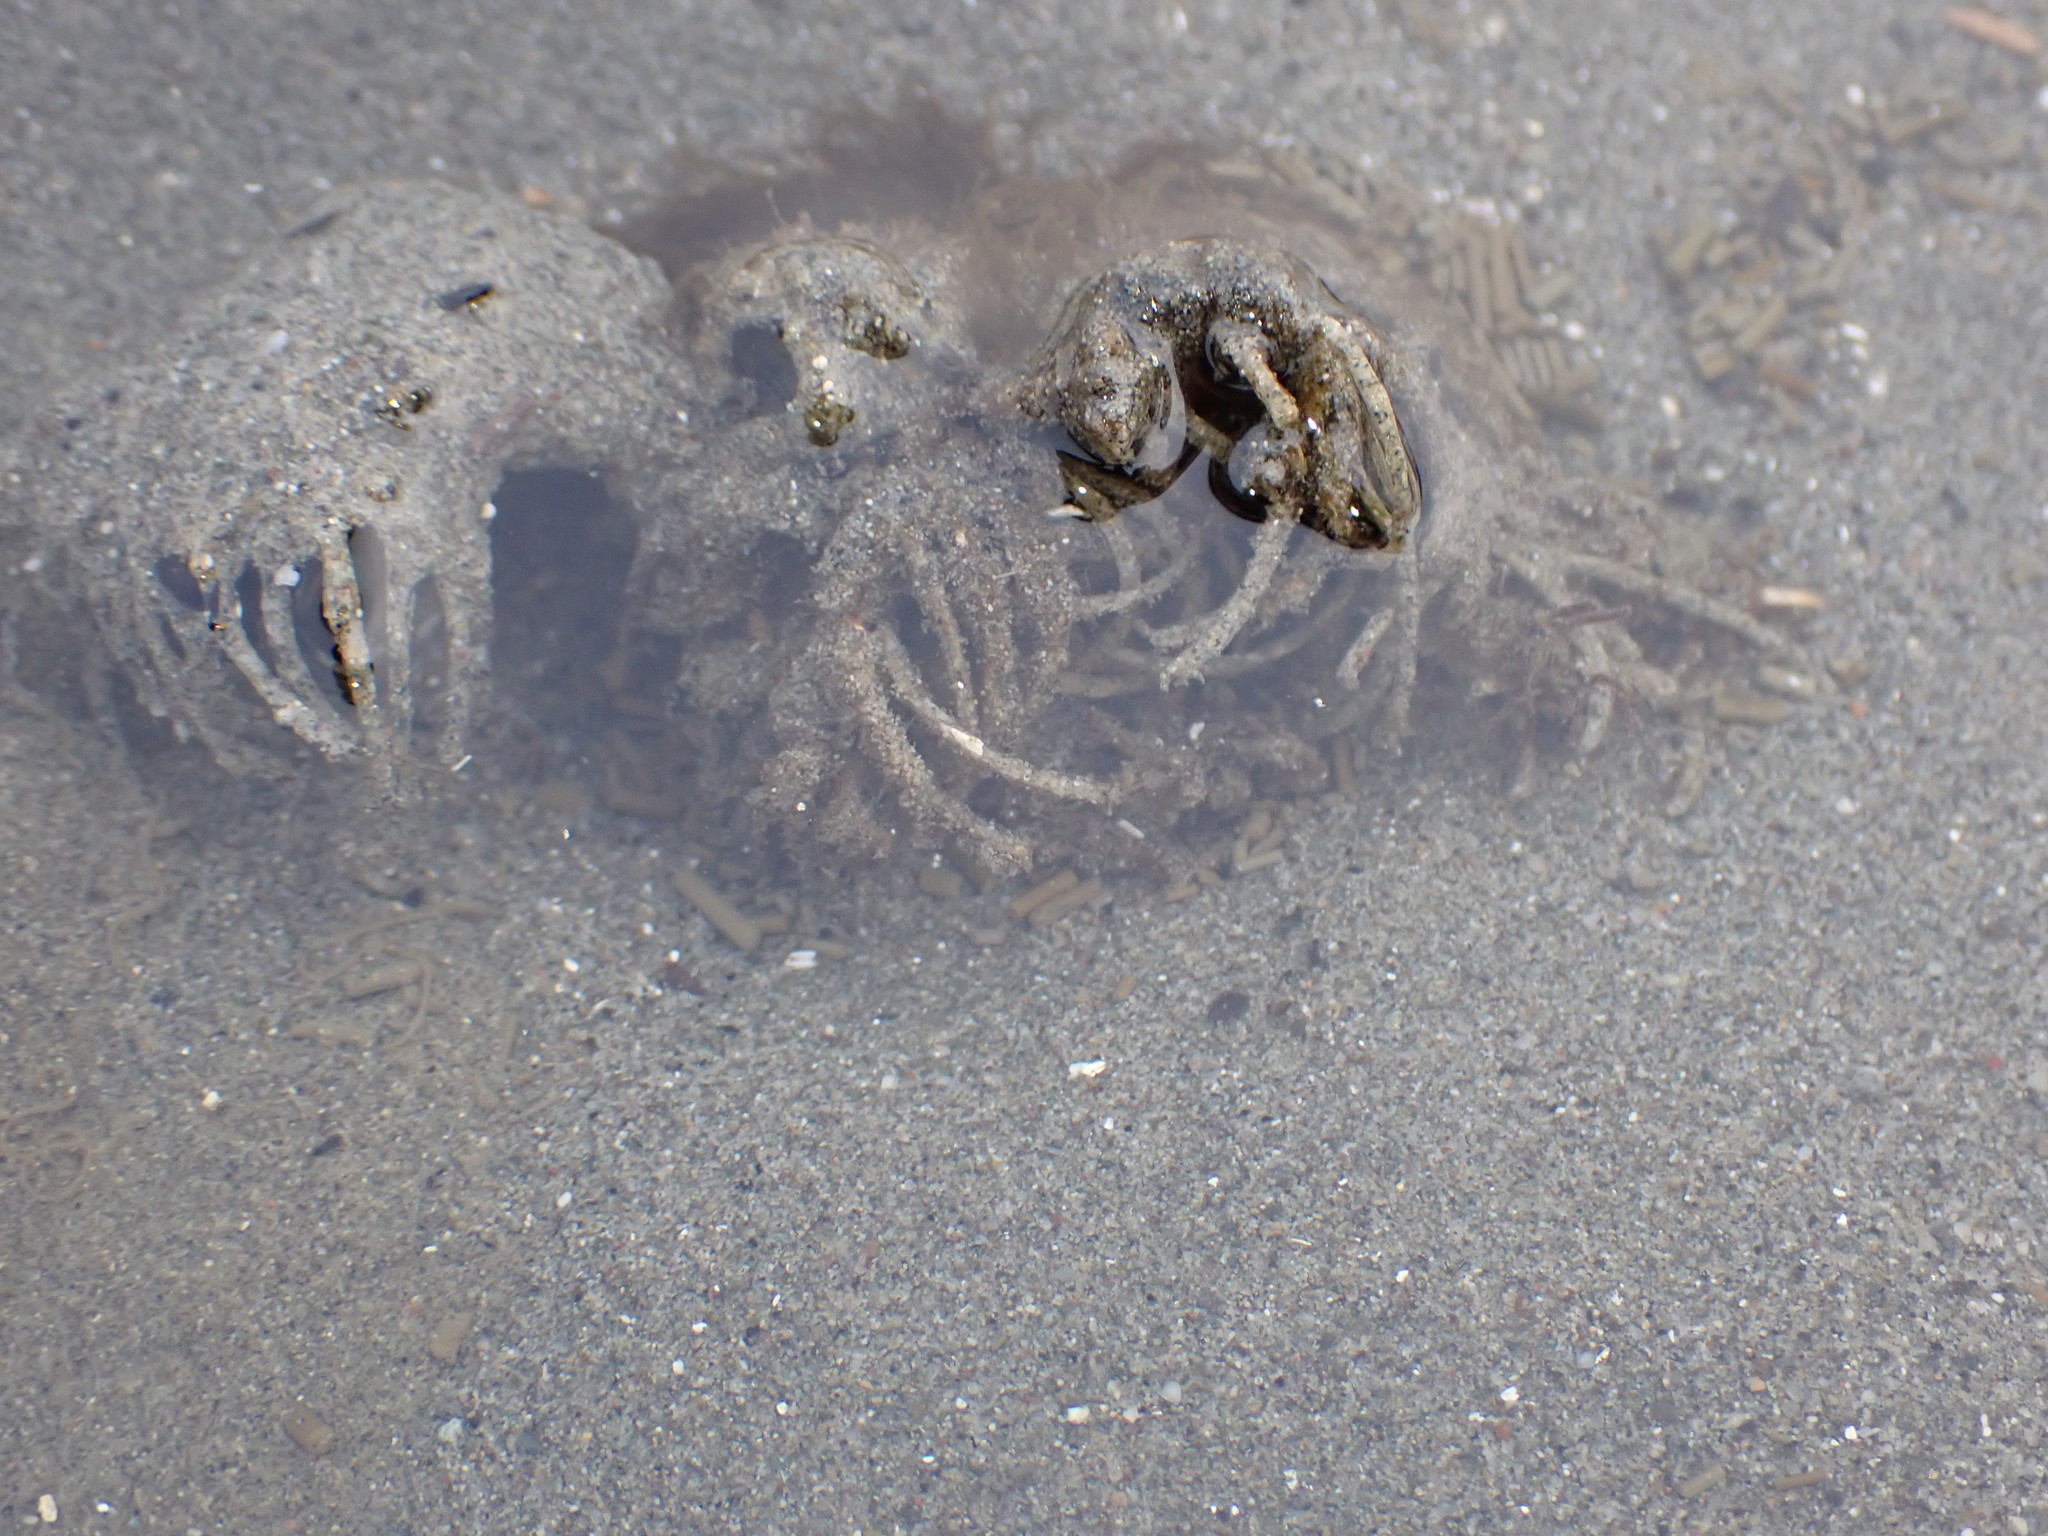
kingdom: Animalia
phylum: Annelida
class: Polychaeta
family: Terebellidae
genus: Pista
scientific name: Pista pacifica
